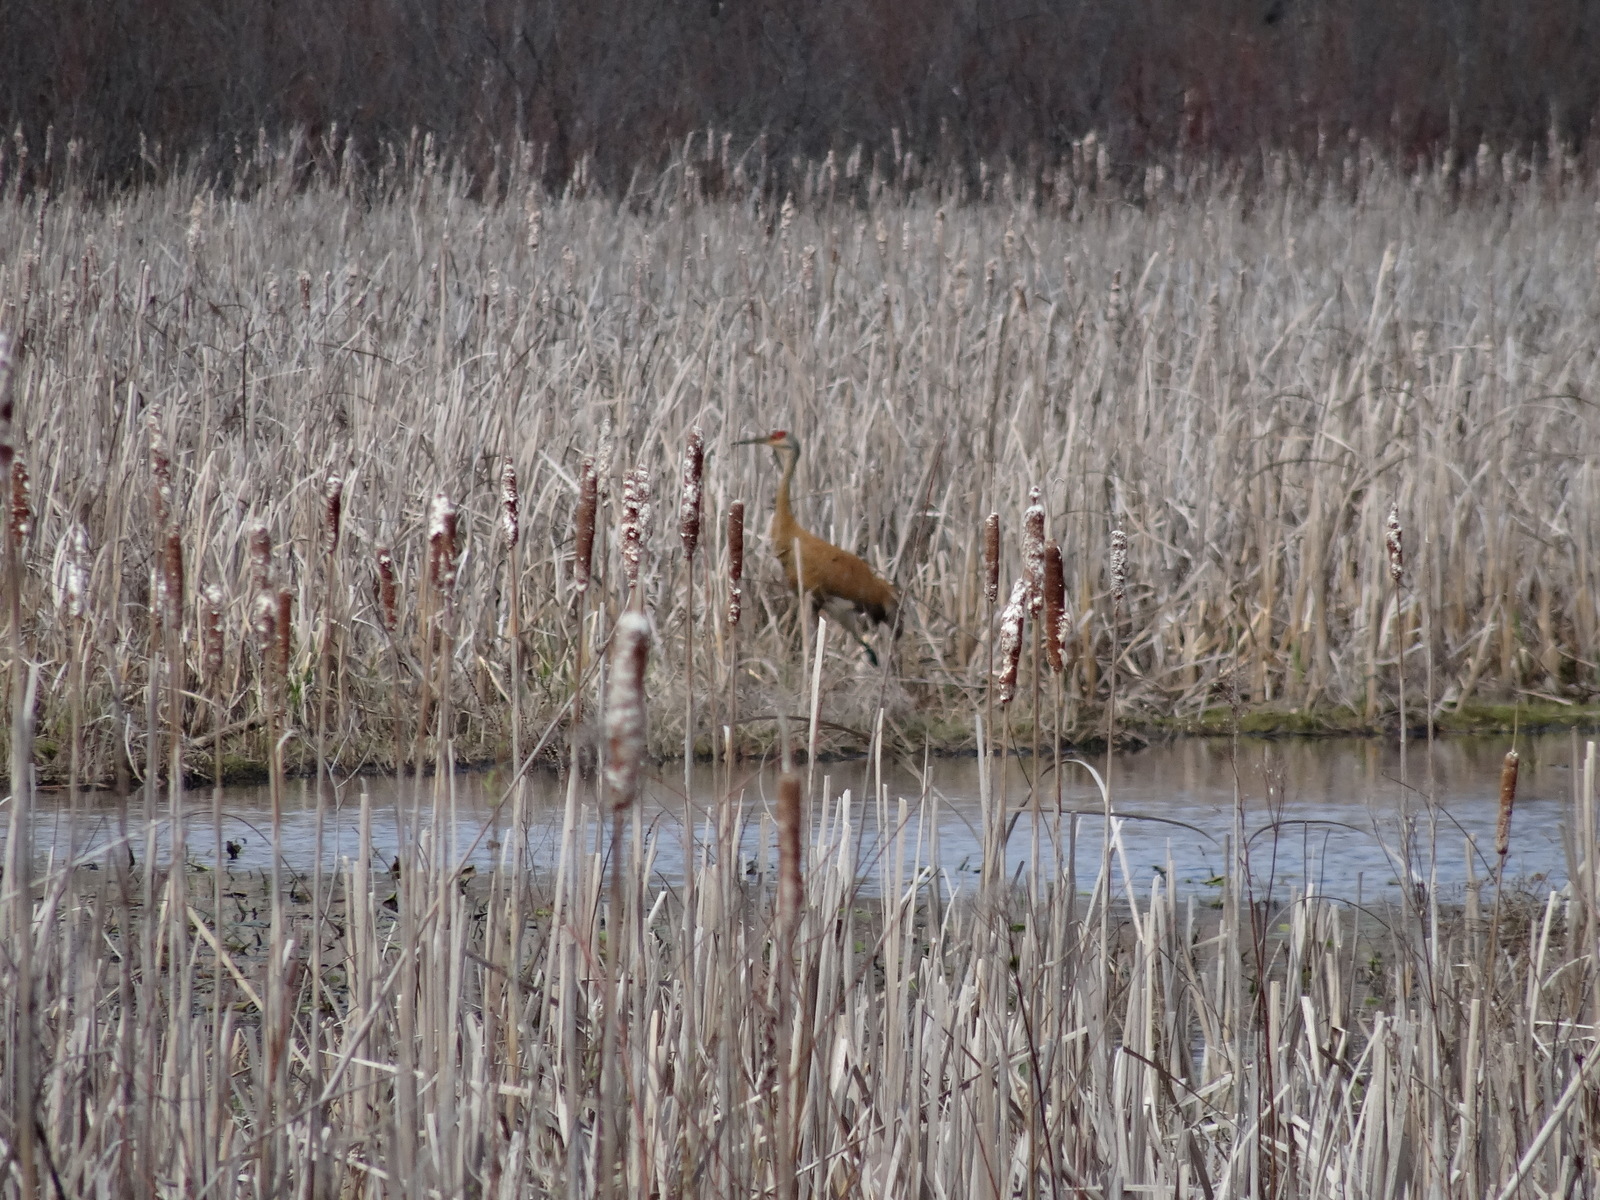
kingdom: Animalia
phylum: Chordata
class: Aves
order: Gruiformes
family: Gruidae
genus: Grus
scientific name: Grus canadensis
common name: Sandhill crane
